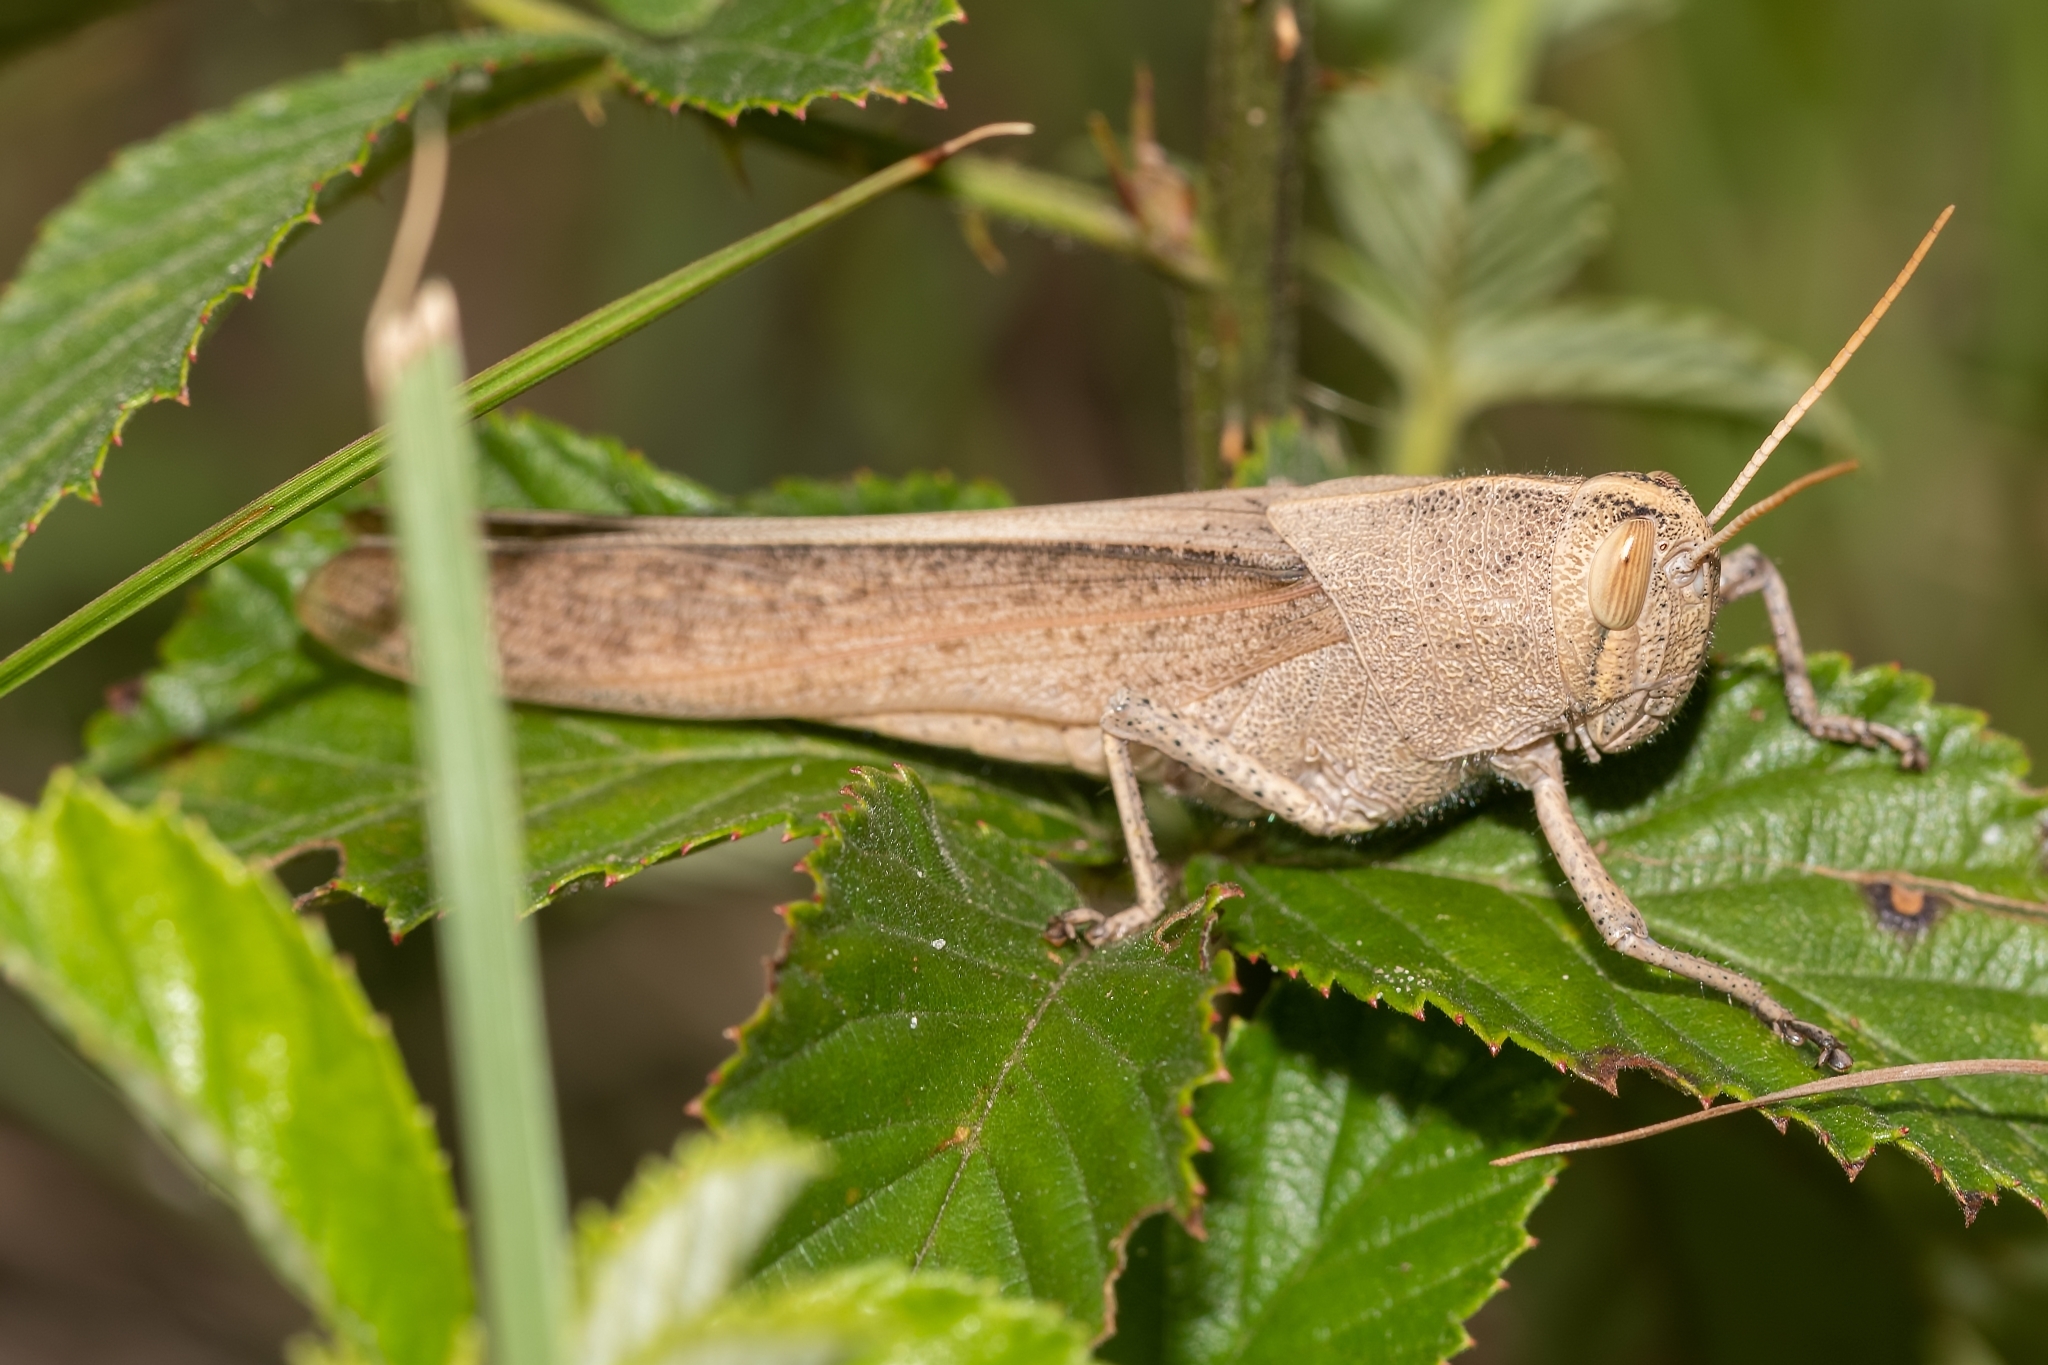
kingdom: Animalia
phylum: Arthropoda
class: Insecta
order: Orthoptera
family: Acrididae
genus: Schistocerca
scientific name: Schistocerca damnifica
